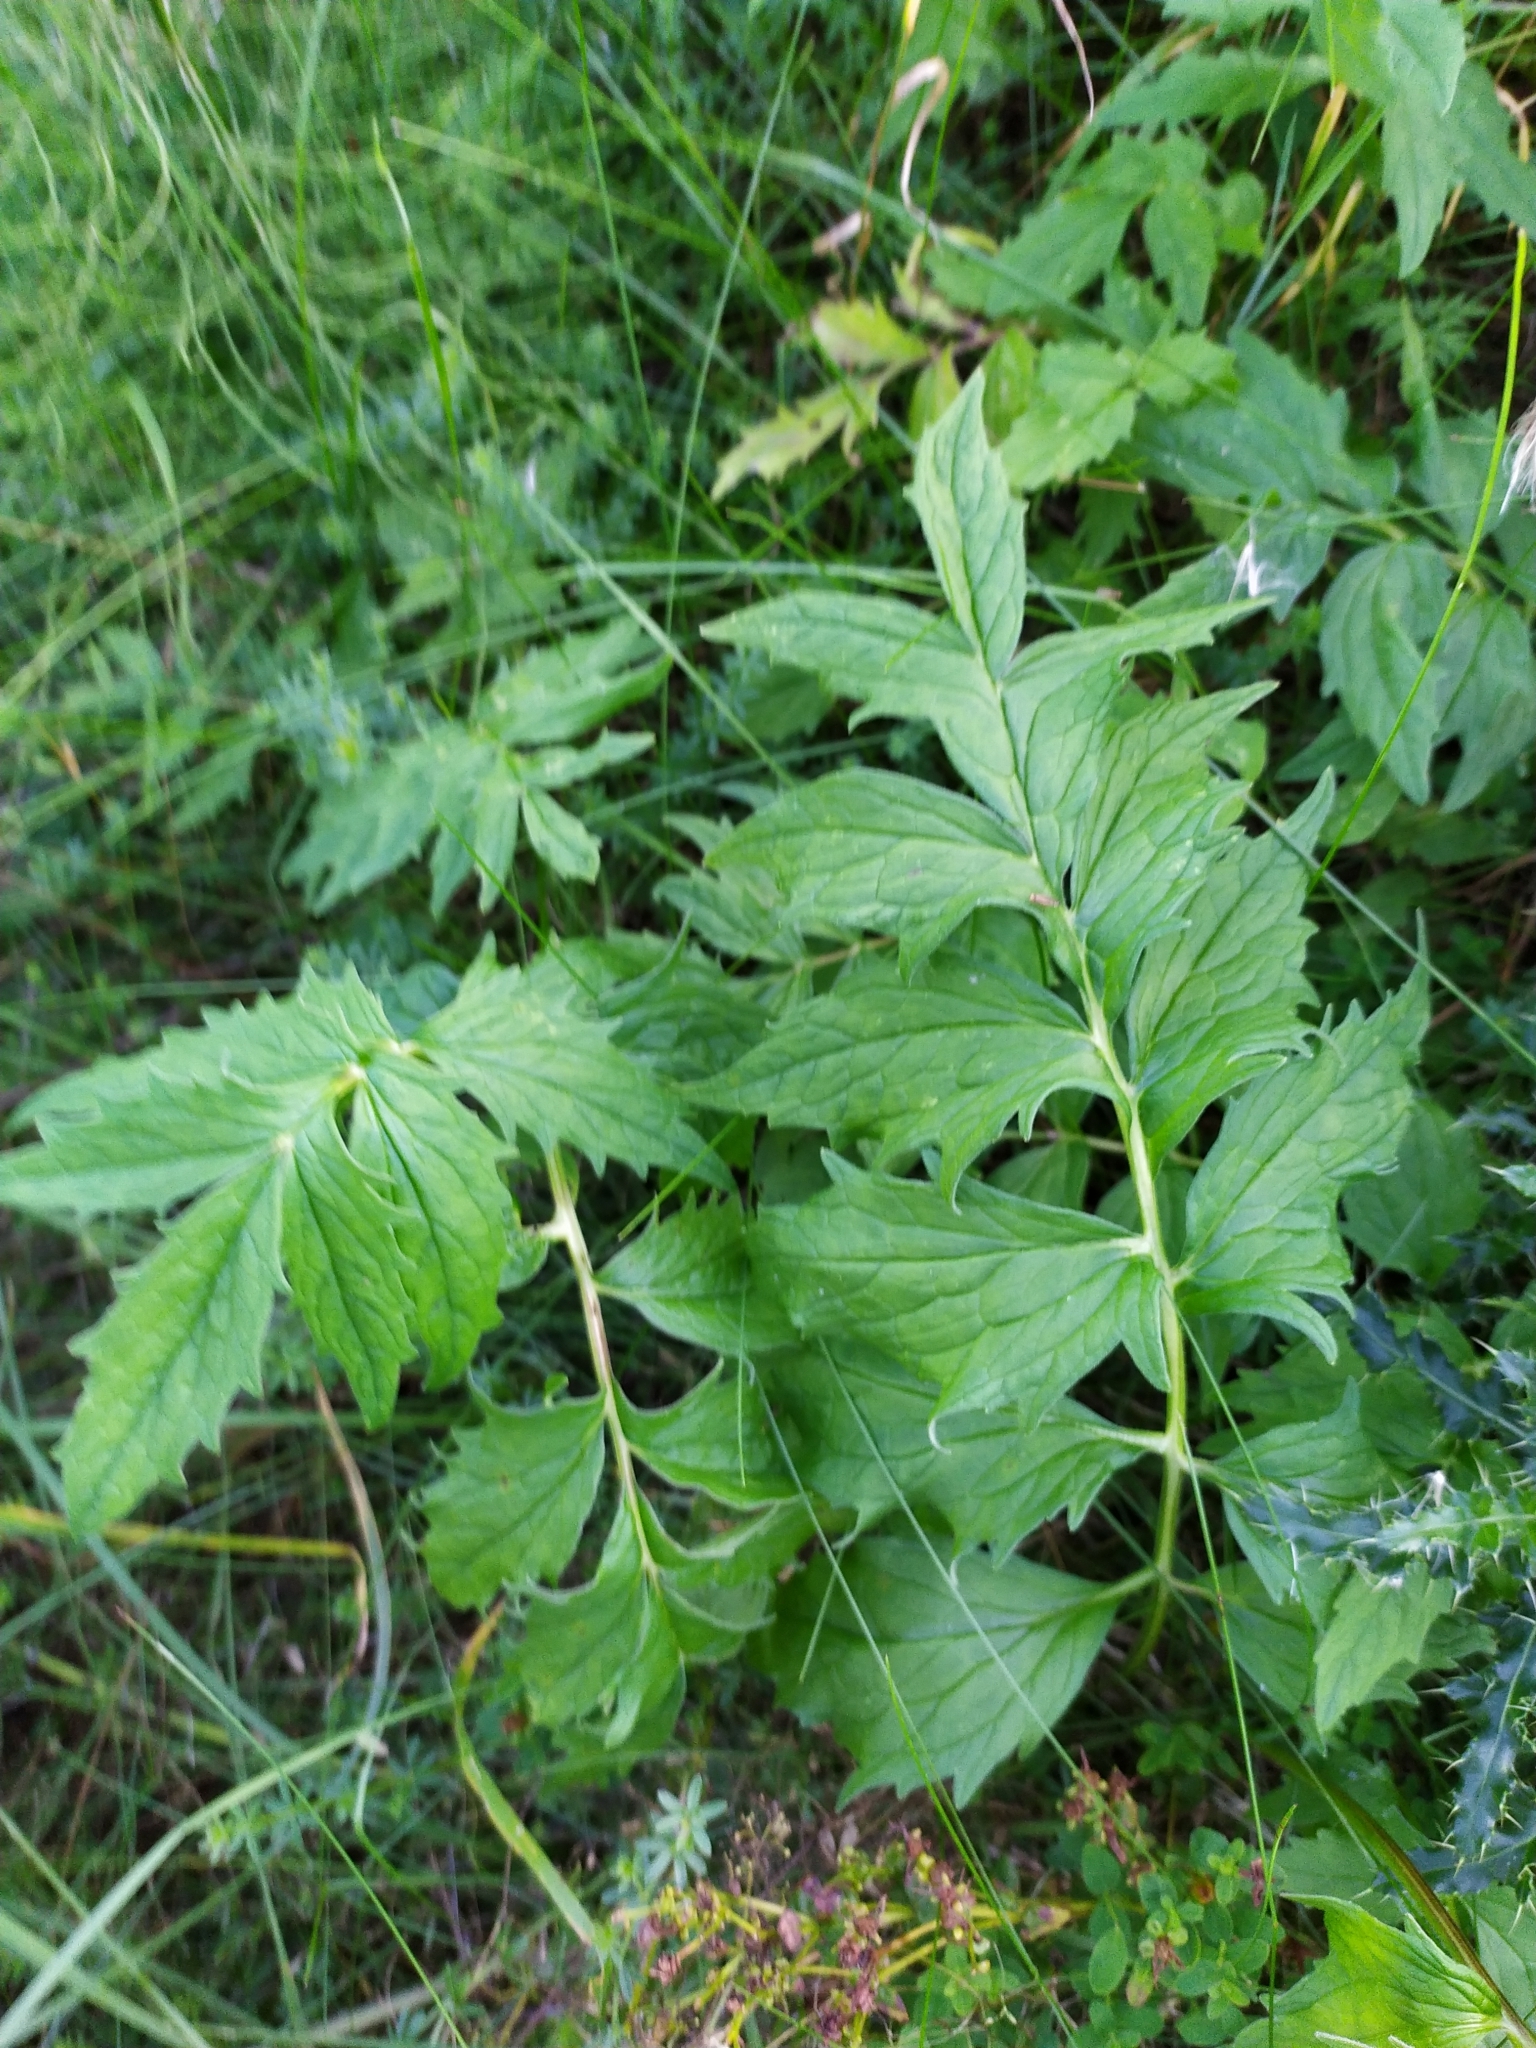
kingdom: Plantae
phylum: Tracheophyta
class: Magnoliopsida
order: Dipsacales
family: Caprifoliaceae
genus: Valeriana
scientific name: Valeriana officinalis
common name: Common valerian
